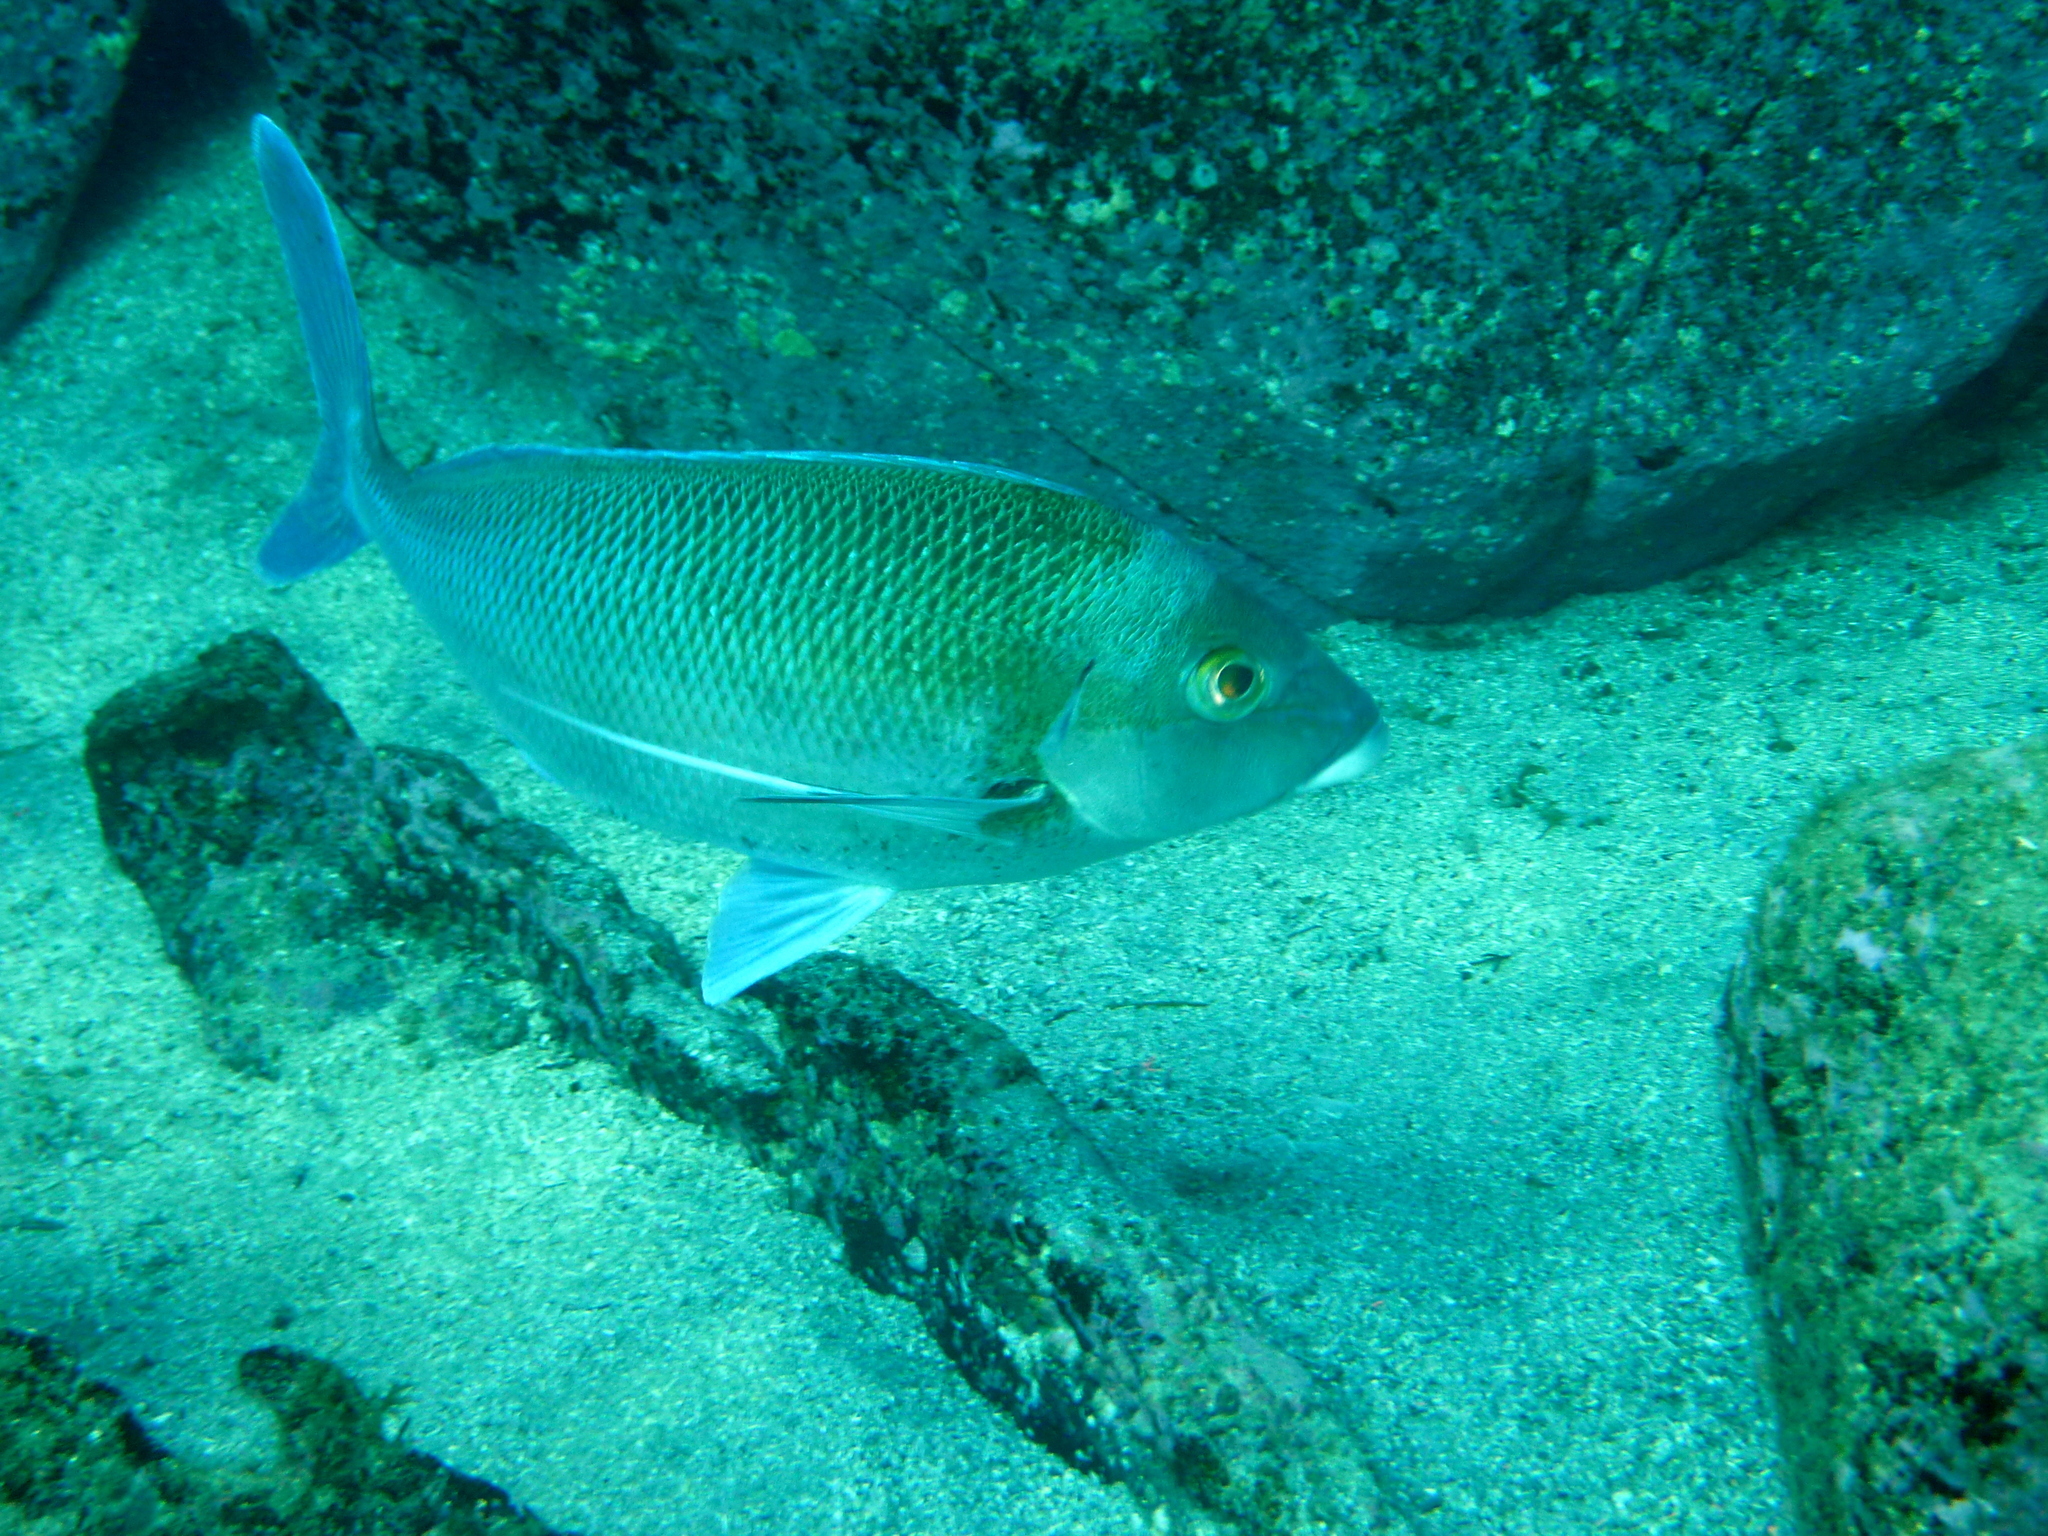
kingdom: Animalia
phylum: Chordata
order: Perciformes
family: Cheilodactylidae
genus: Nemadactylus
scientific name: Nemadactylus douglasii
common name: Porae
